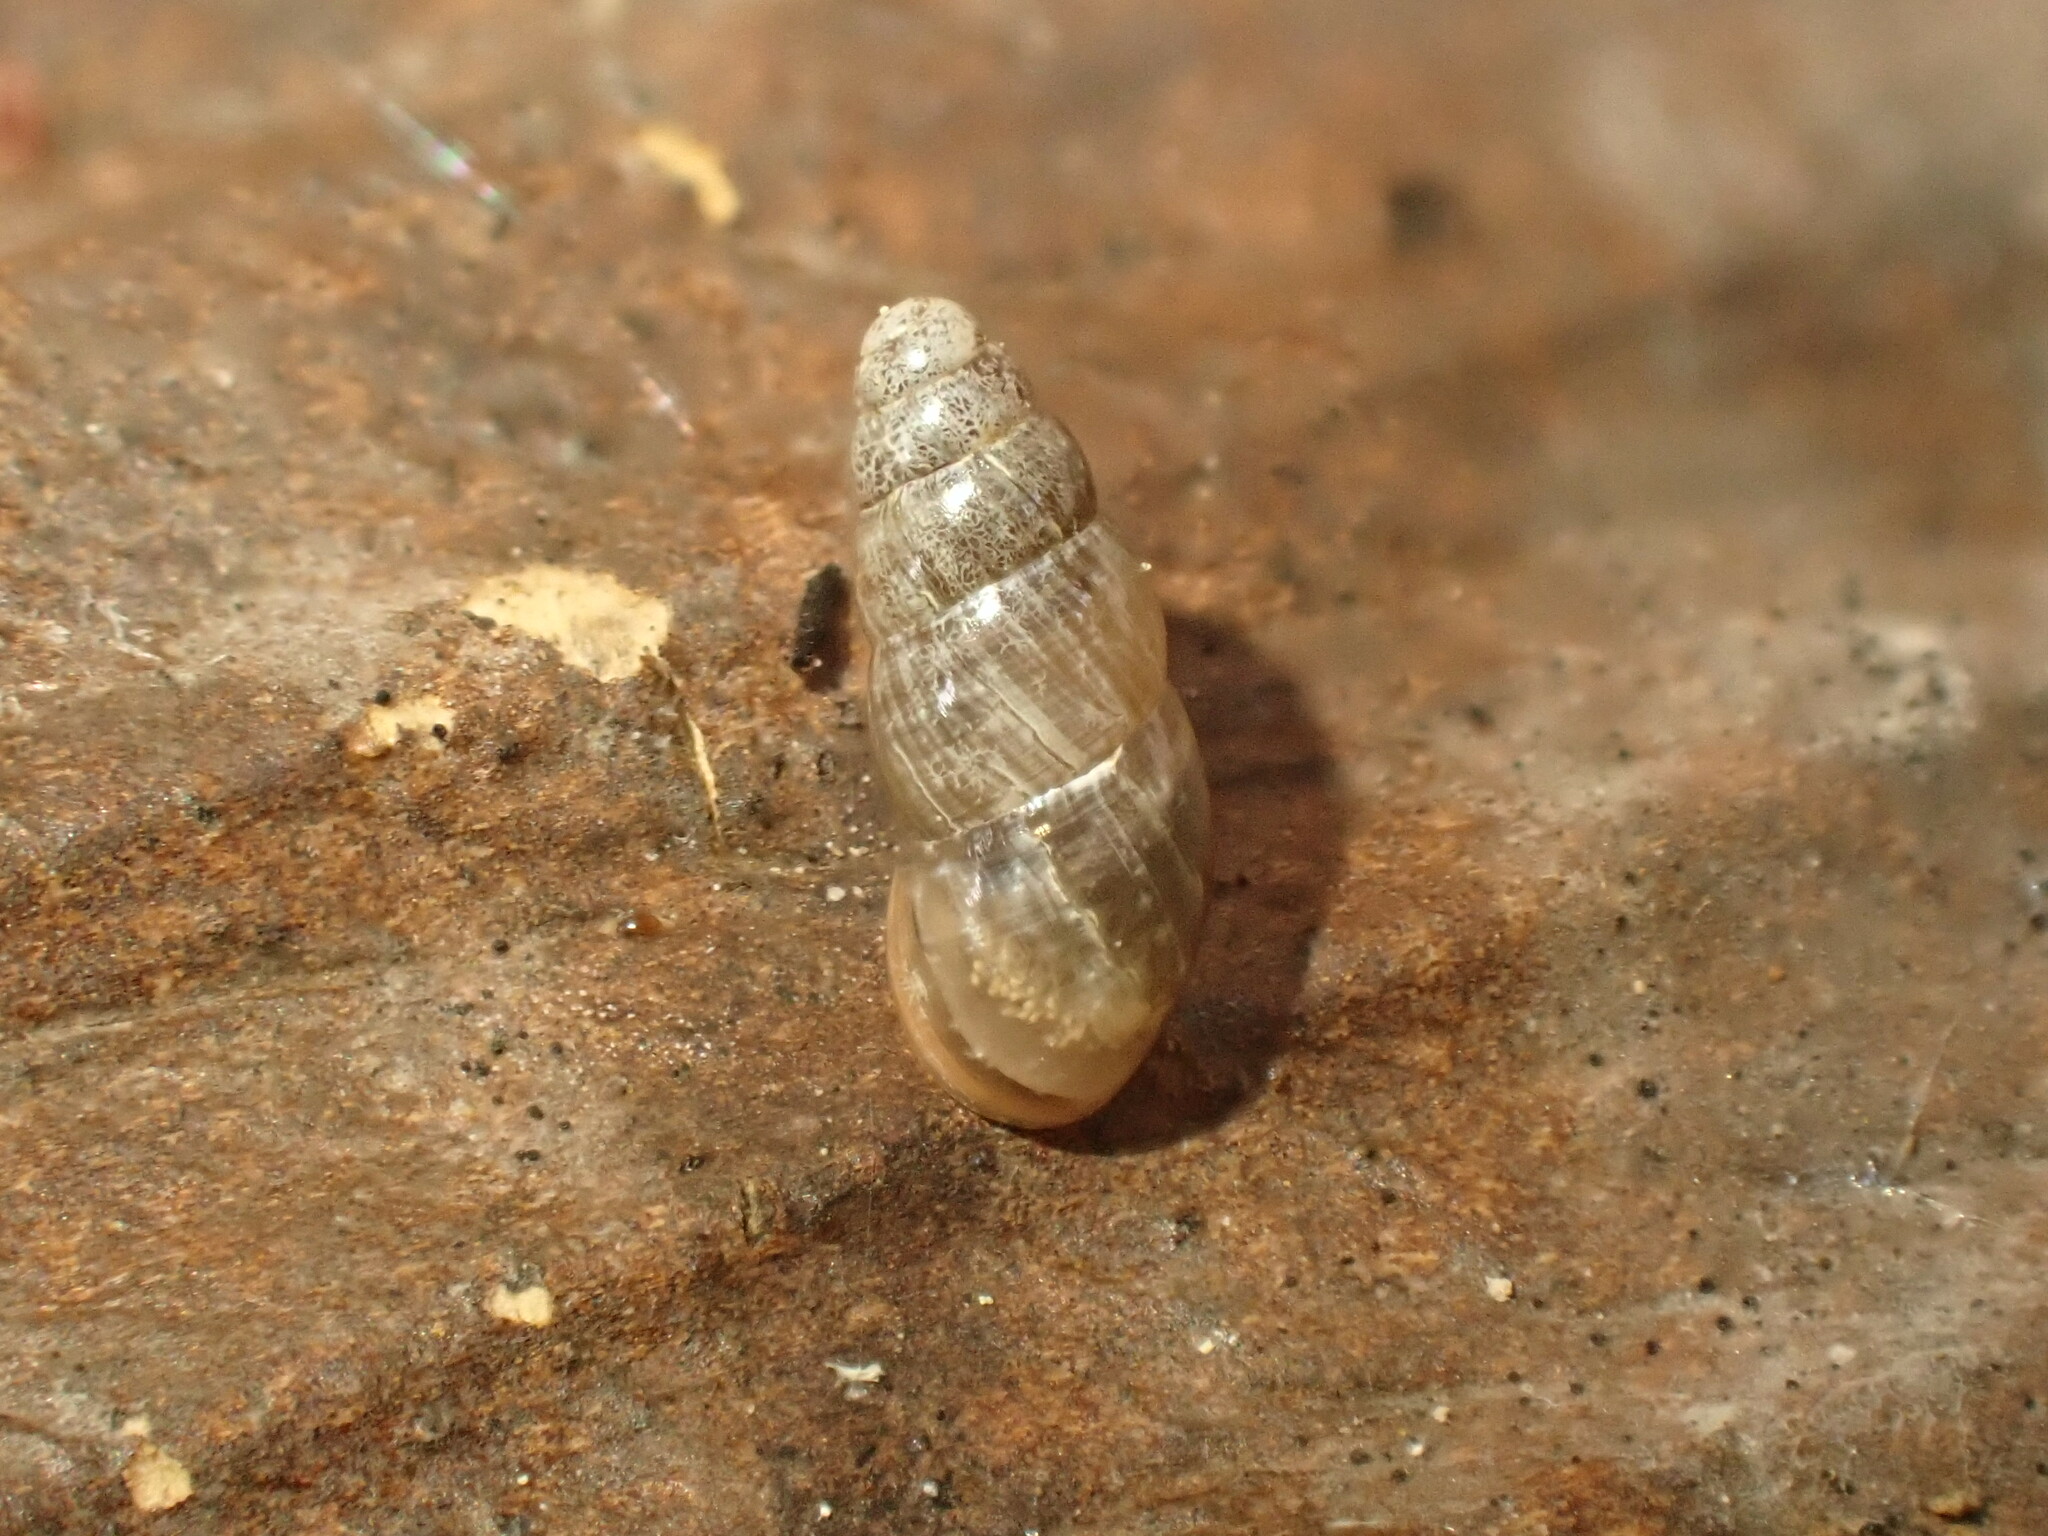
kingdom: Animalia
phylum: Mollusca
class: Gastropoda
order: Stylommatophora
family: Cochlicopidae
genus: Cochlicopa
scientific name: Cochlicopa lubrica
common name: Glossy pillar snail
